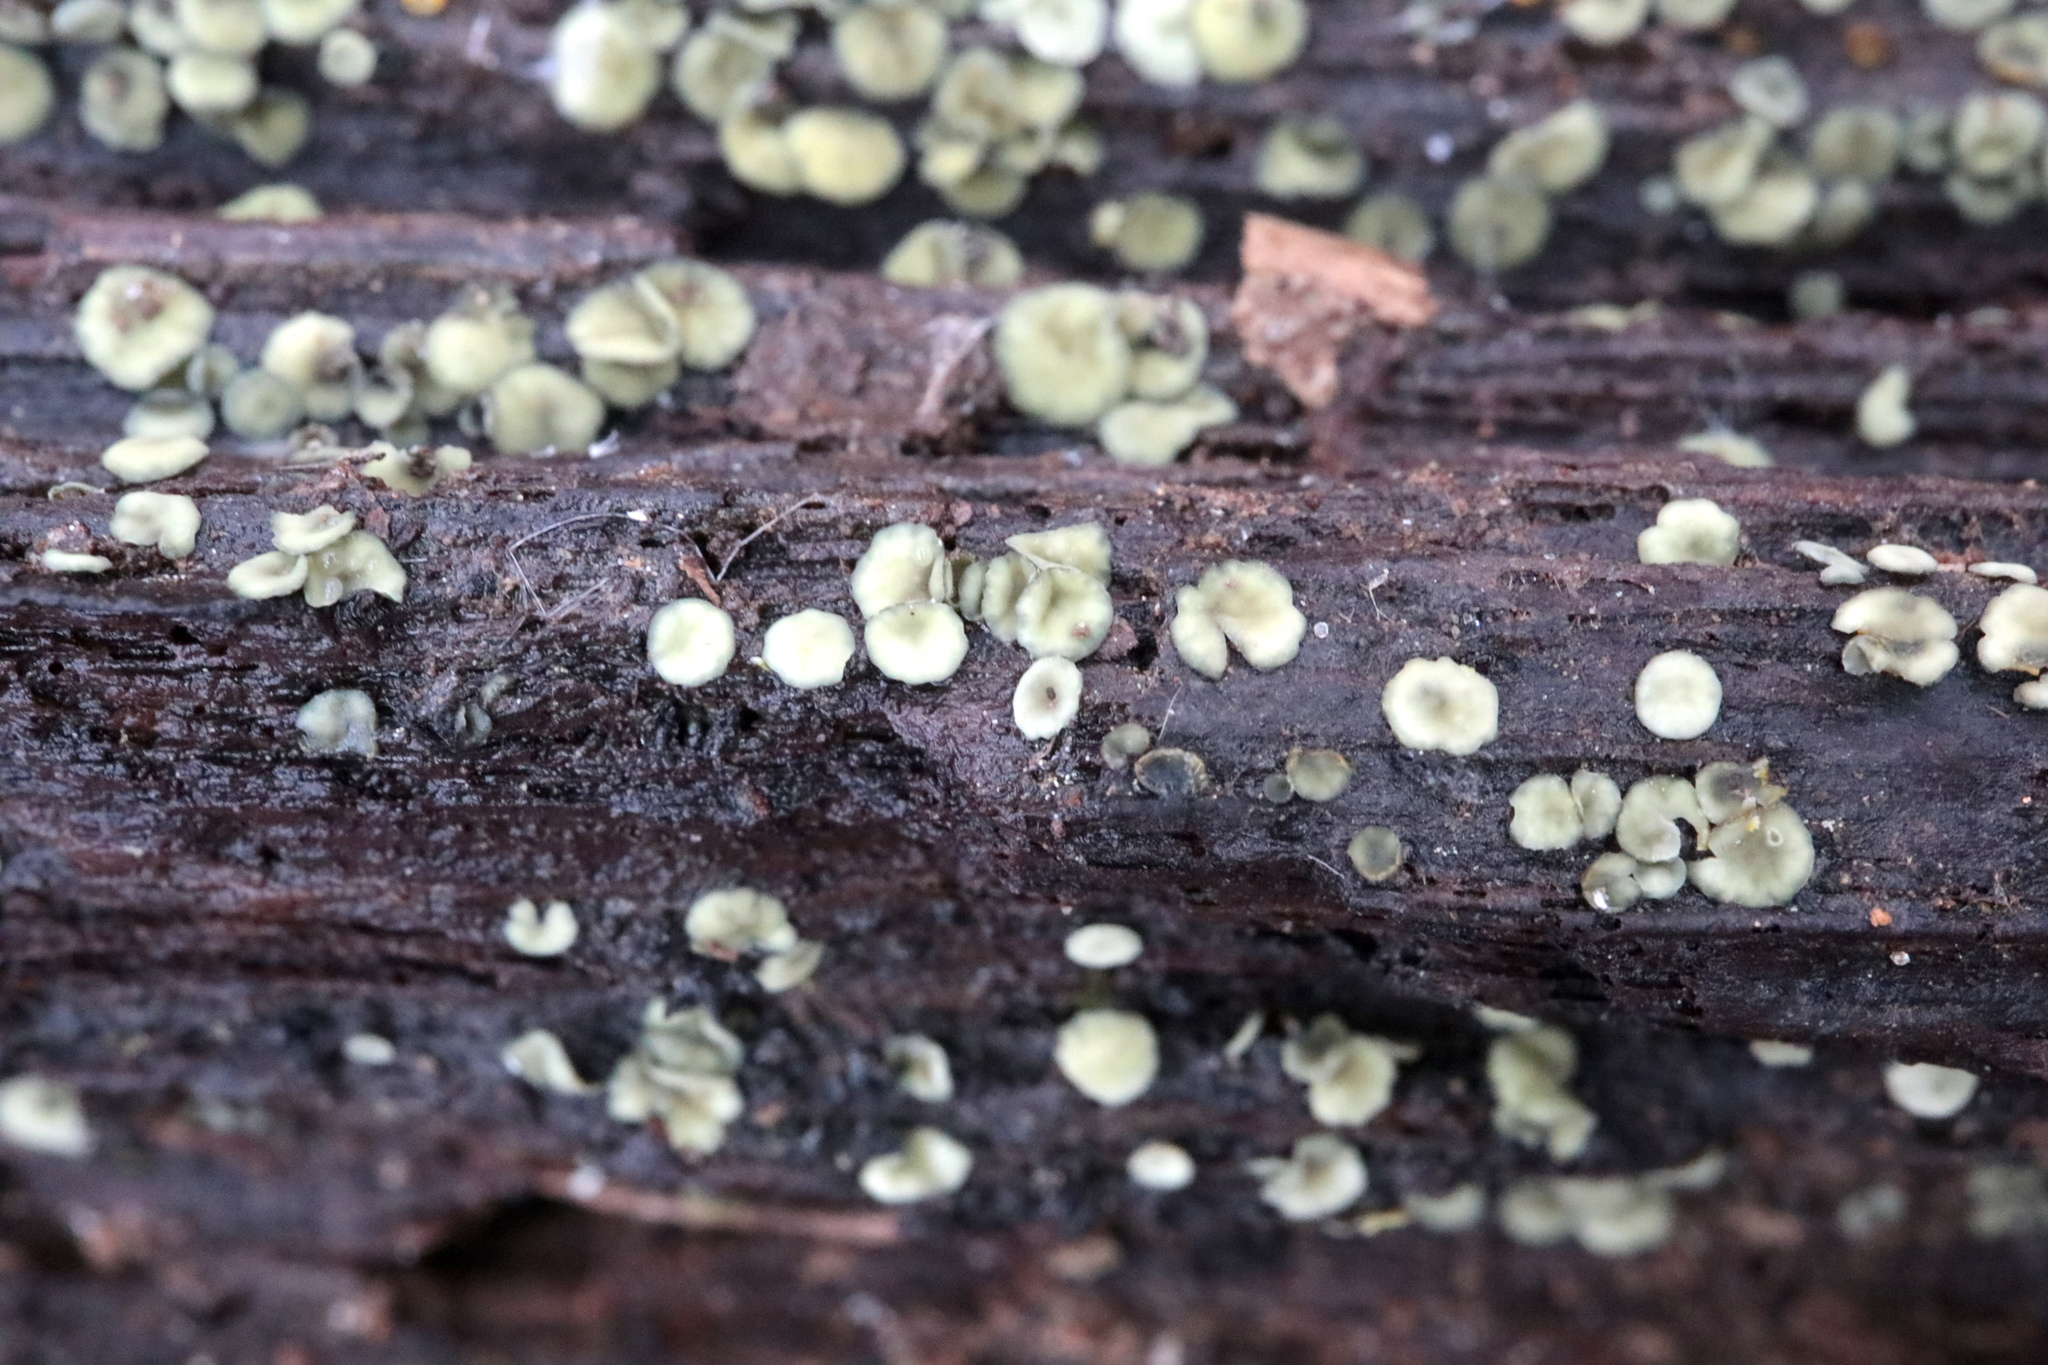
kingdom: Fungi
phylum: Ascomycota
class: Leotiomycetes
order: Helotiales
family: Chlorospleniaceae
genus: Chlorosplenium
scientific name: Chlorosplenium chlora
